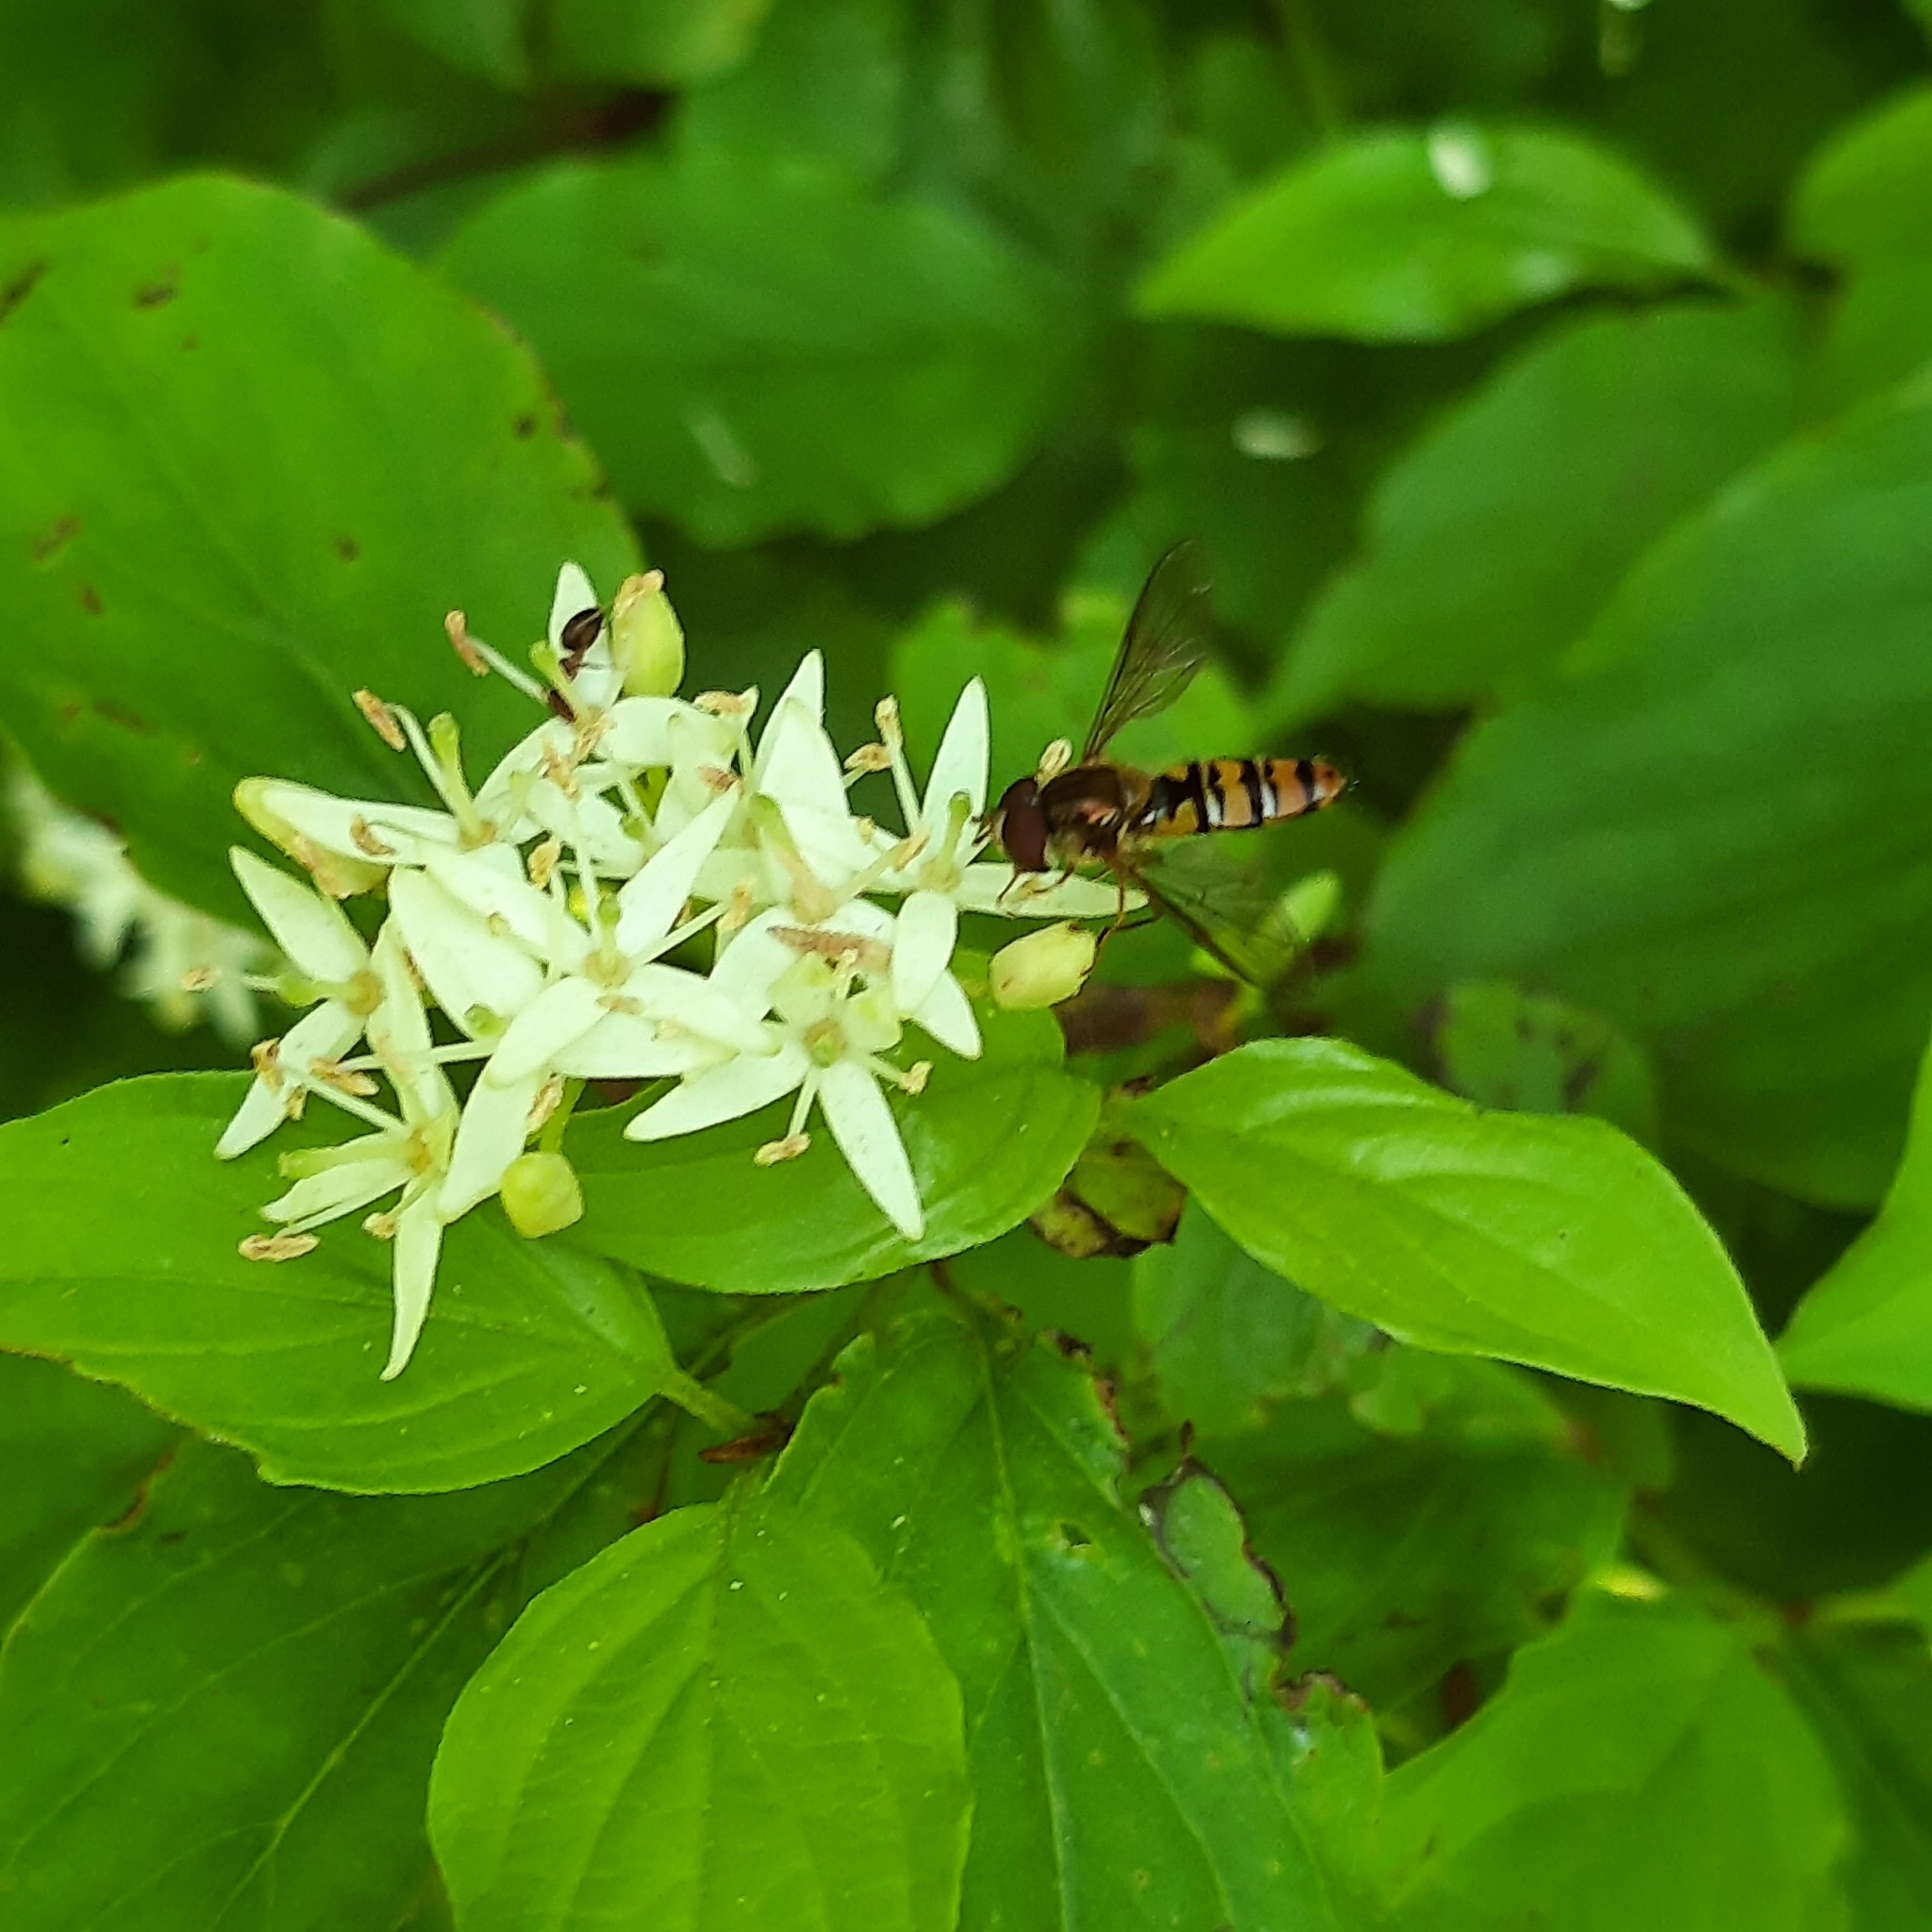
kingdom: Animalia
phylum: Arthropoda
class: Insecta
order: Diptera
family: Syrphidae
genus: Episyrphus
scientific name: Episyrphus balteatus
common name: Marmalade hoverfly
